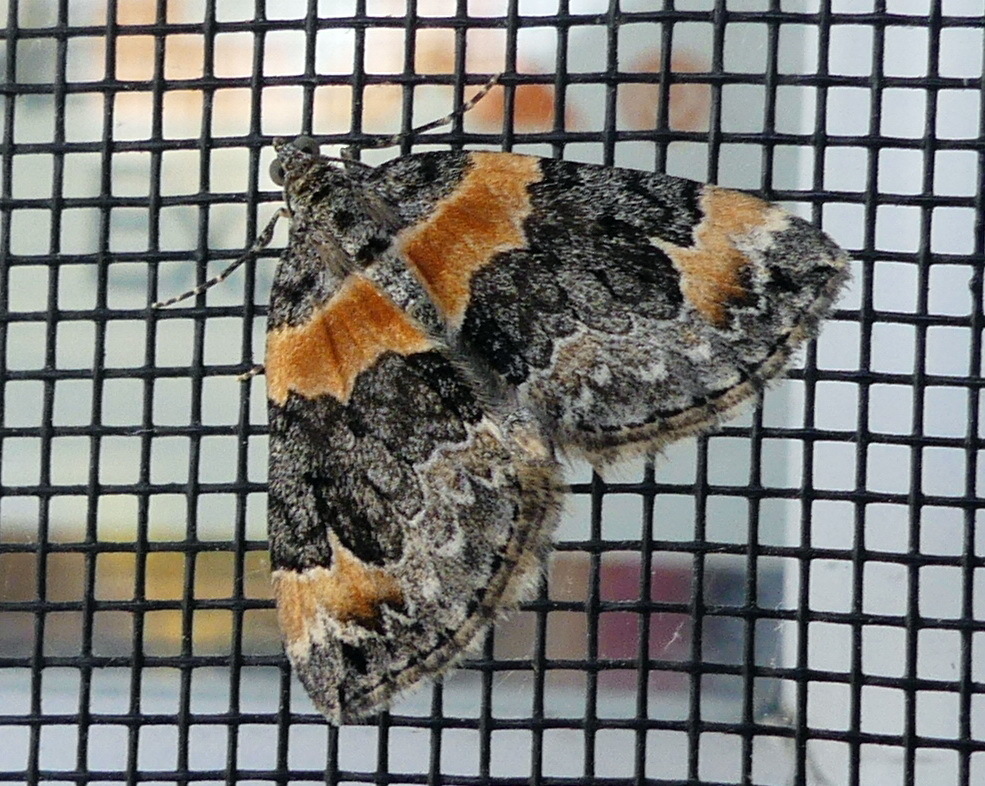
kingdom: Animalia
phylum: Arthropoda
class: Insecta
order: Lepidoptera
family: Geometridae
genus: Dysstroma
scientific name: Dysstroma hersiliata
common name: Orange-barred carpet
